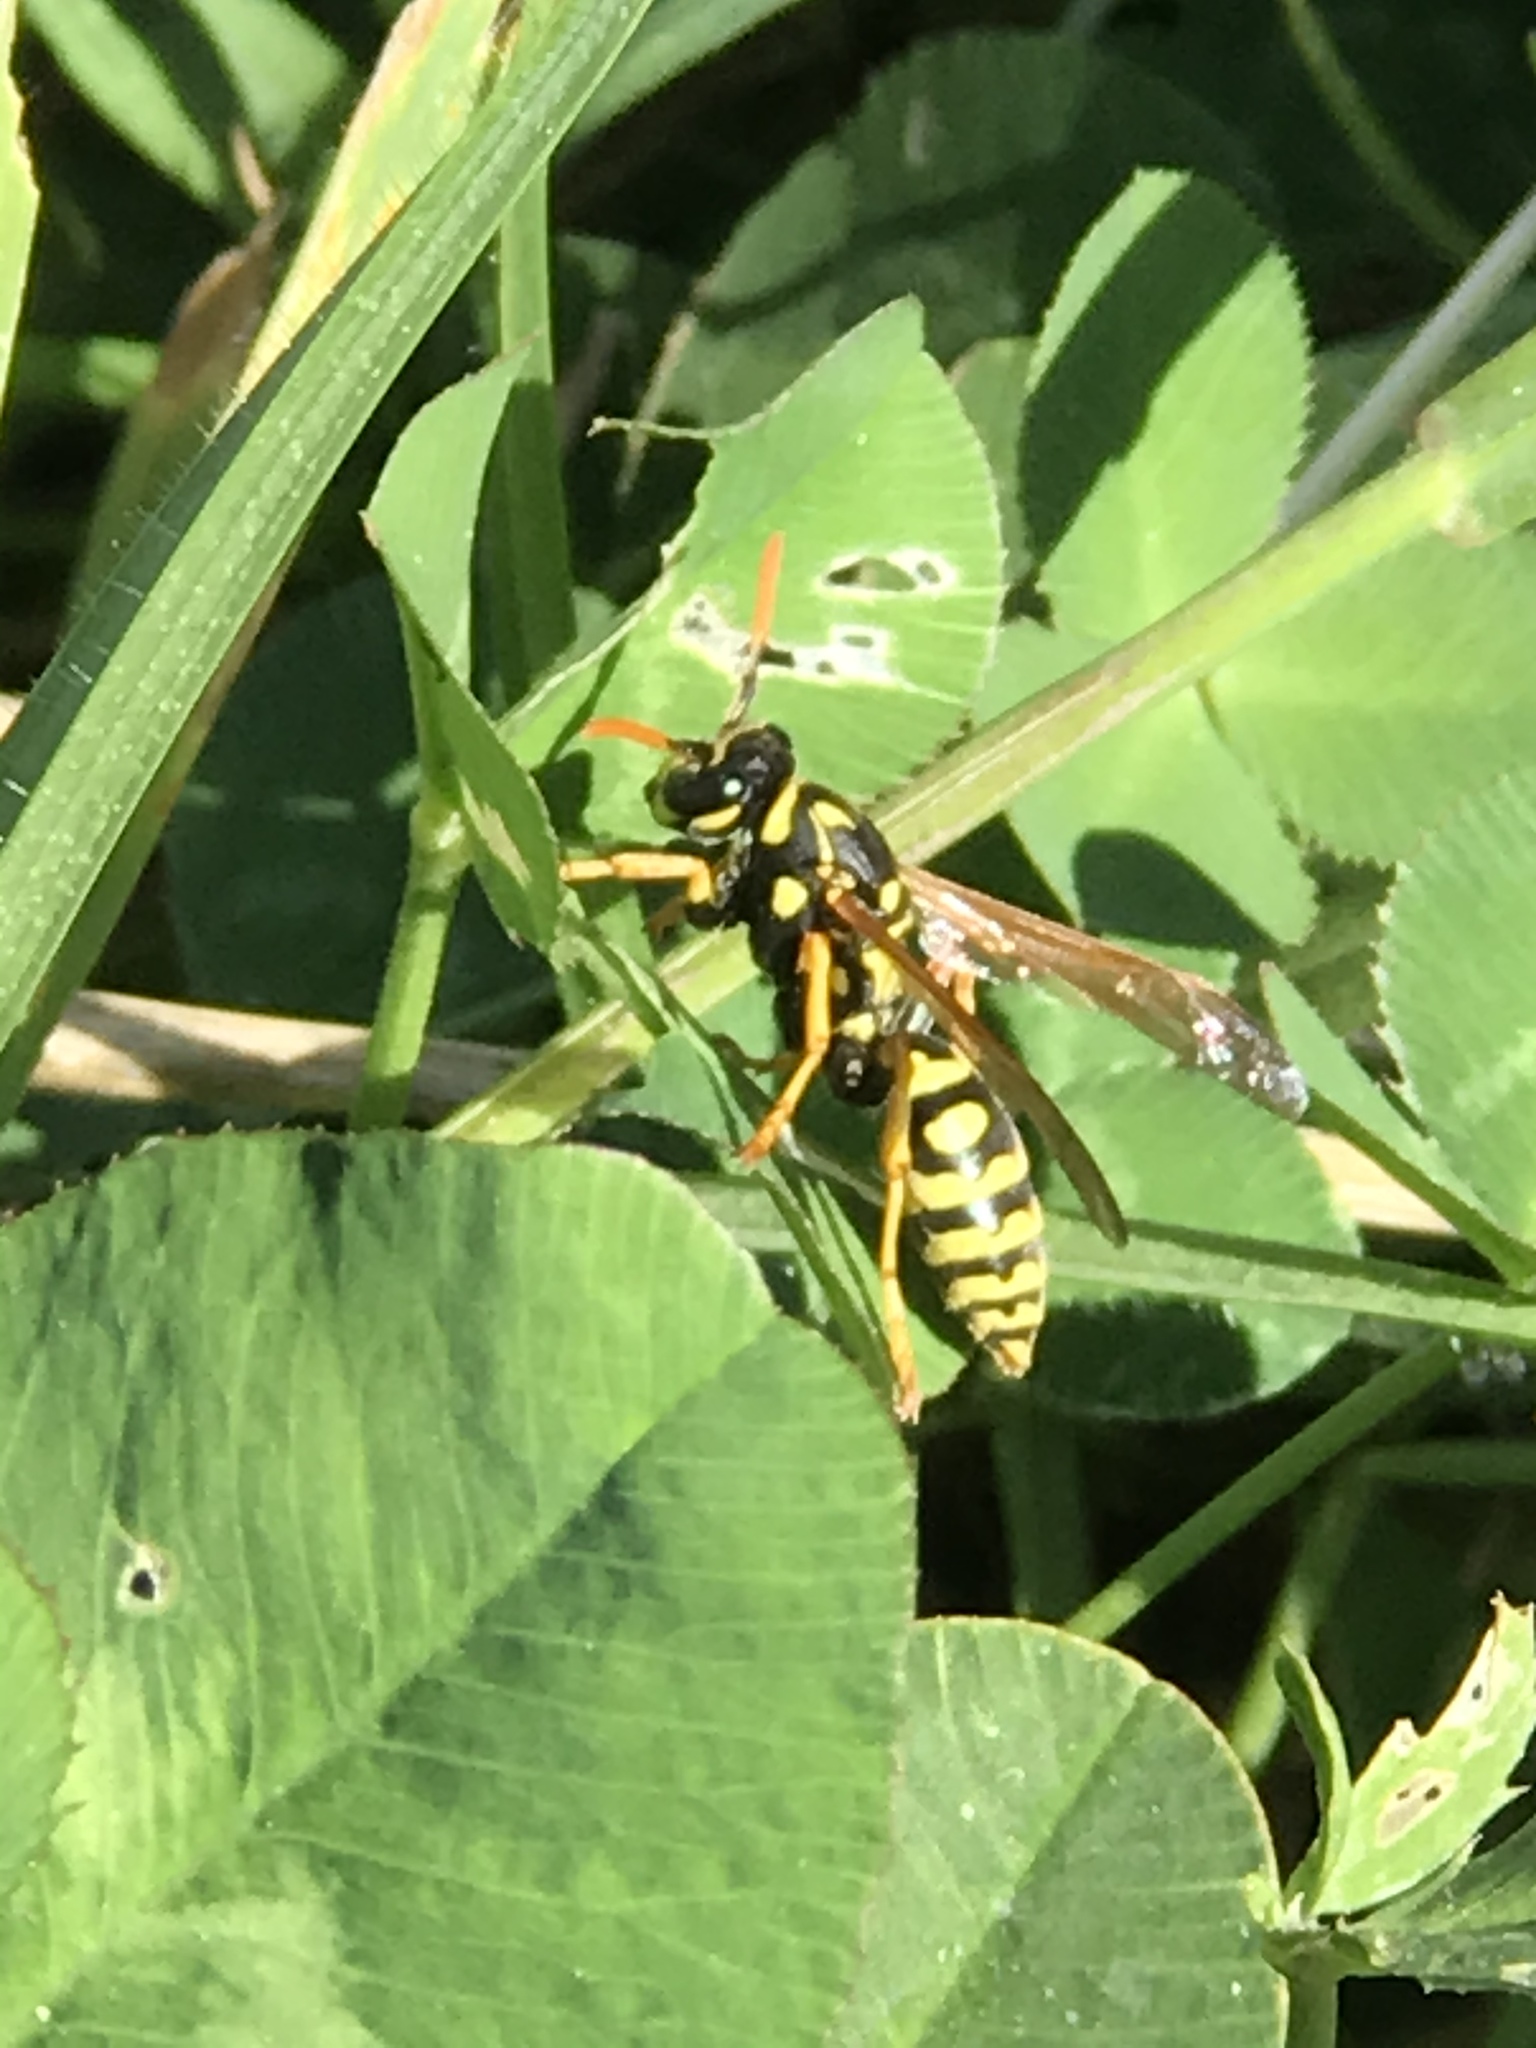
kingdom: Animalia
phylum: Arthropoda
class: Insecta
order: Hymenoptera
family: Eumenidae
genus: Polistes
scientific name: Polistes dominula
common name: Paper wasp
